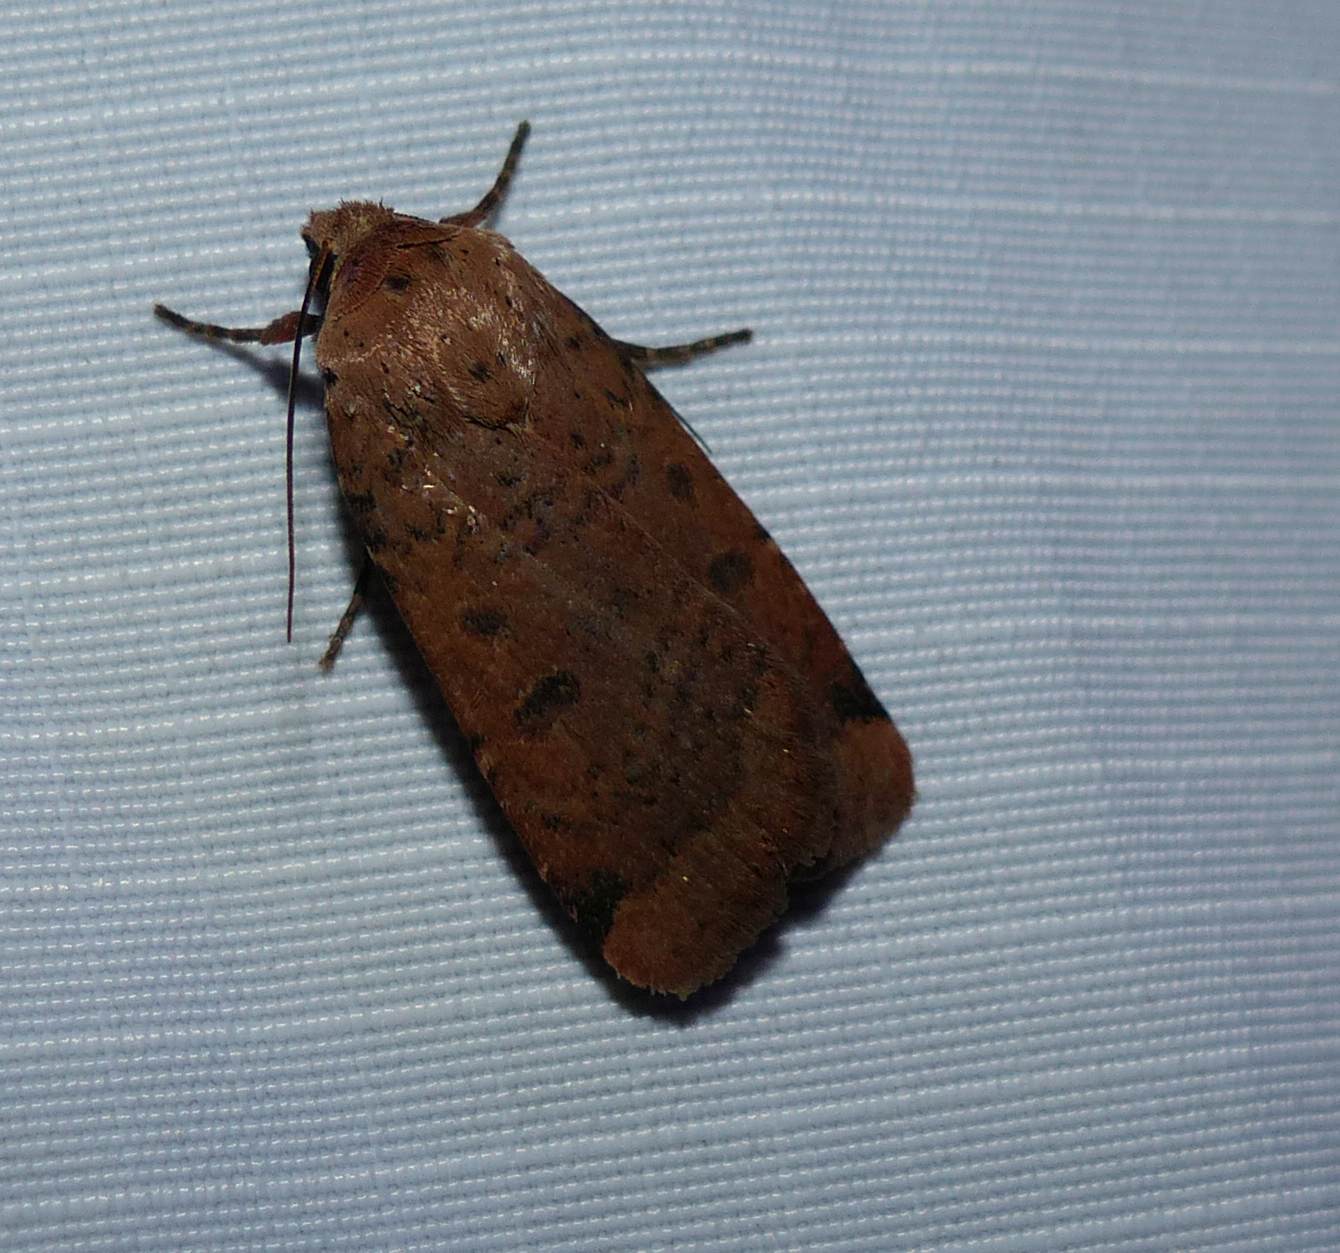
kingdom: Animalia
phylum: Arthropoda
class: Insecta
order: Lepidoptera
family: Noctuidae
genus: Abagrotis
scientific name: Abagrotis cupida
